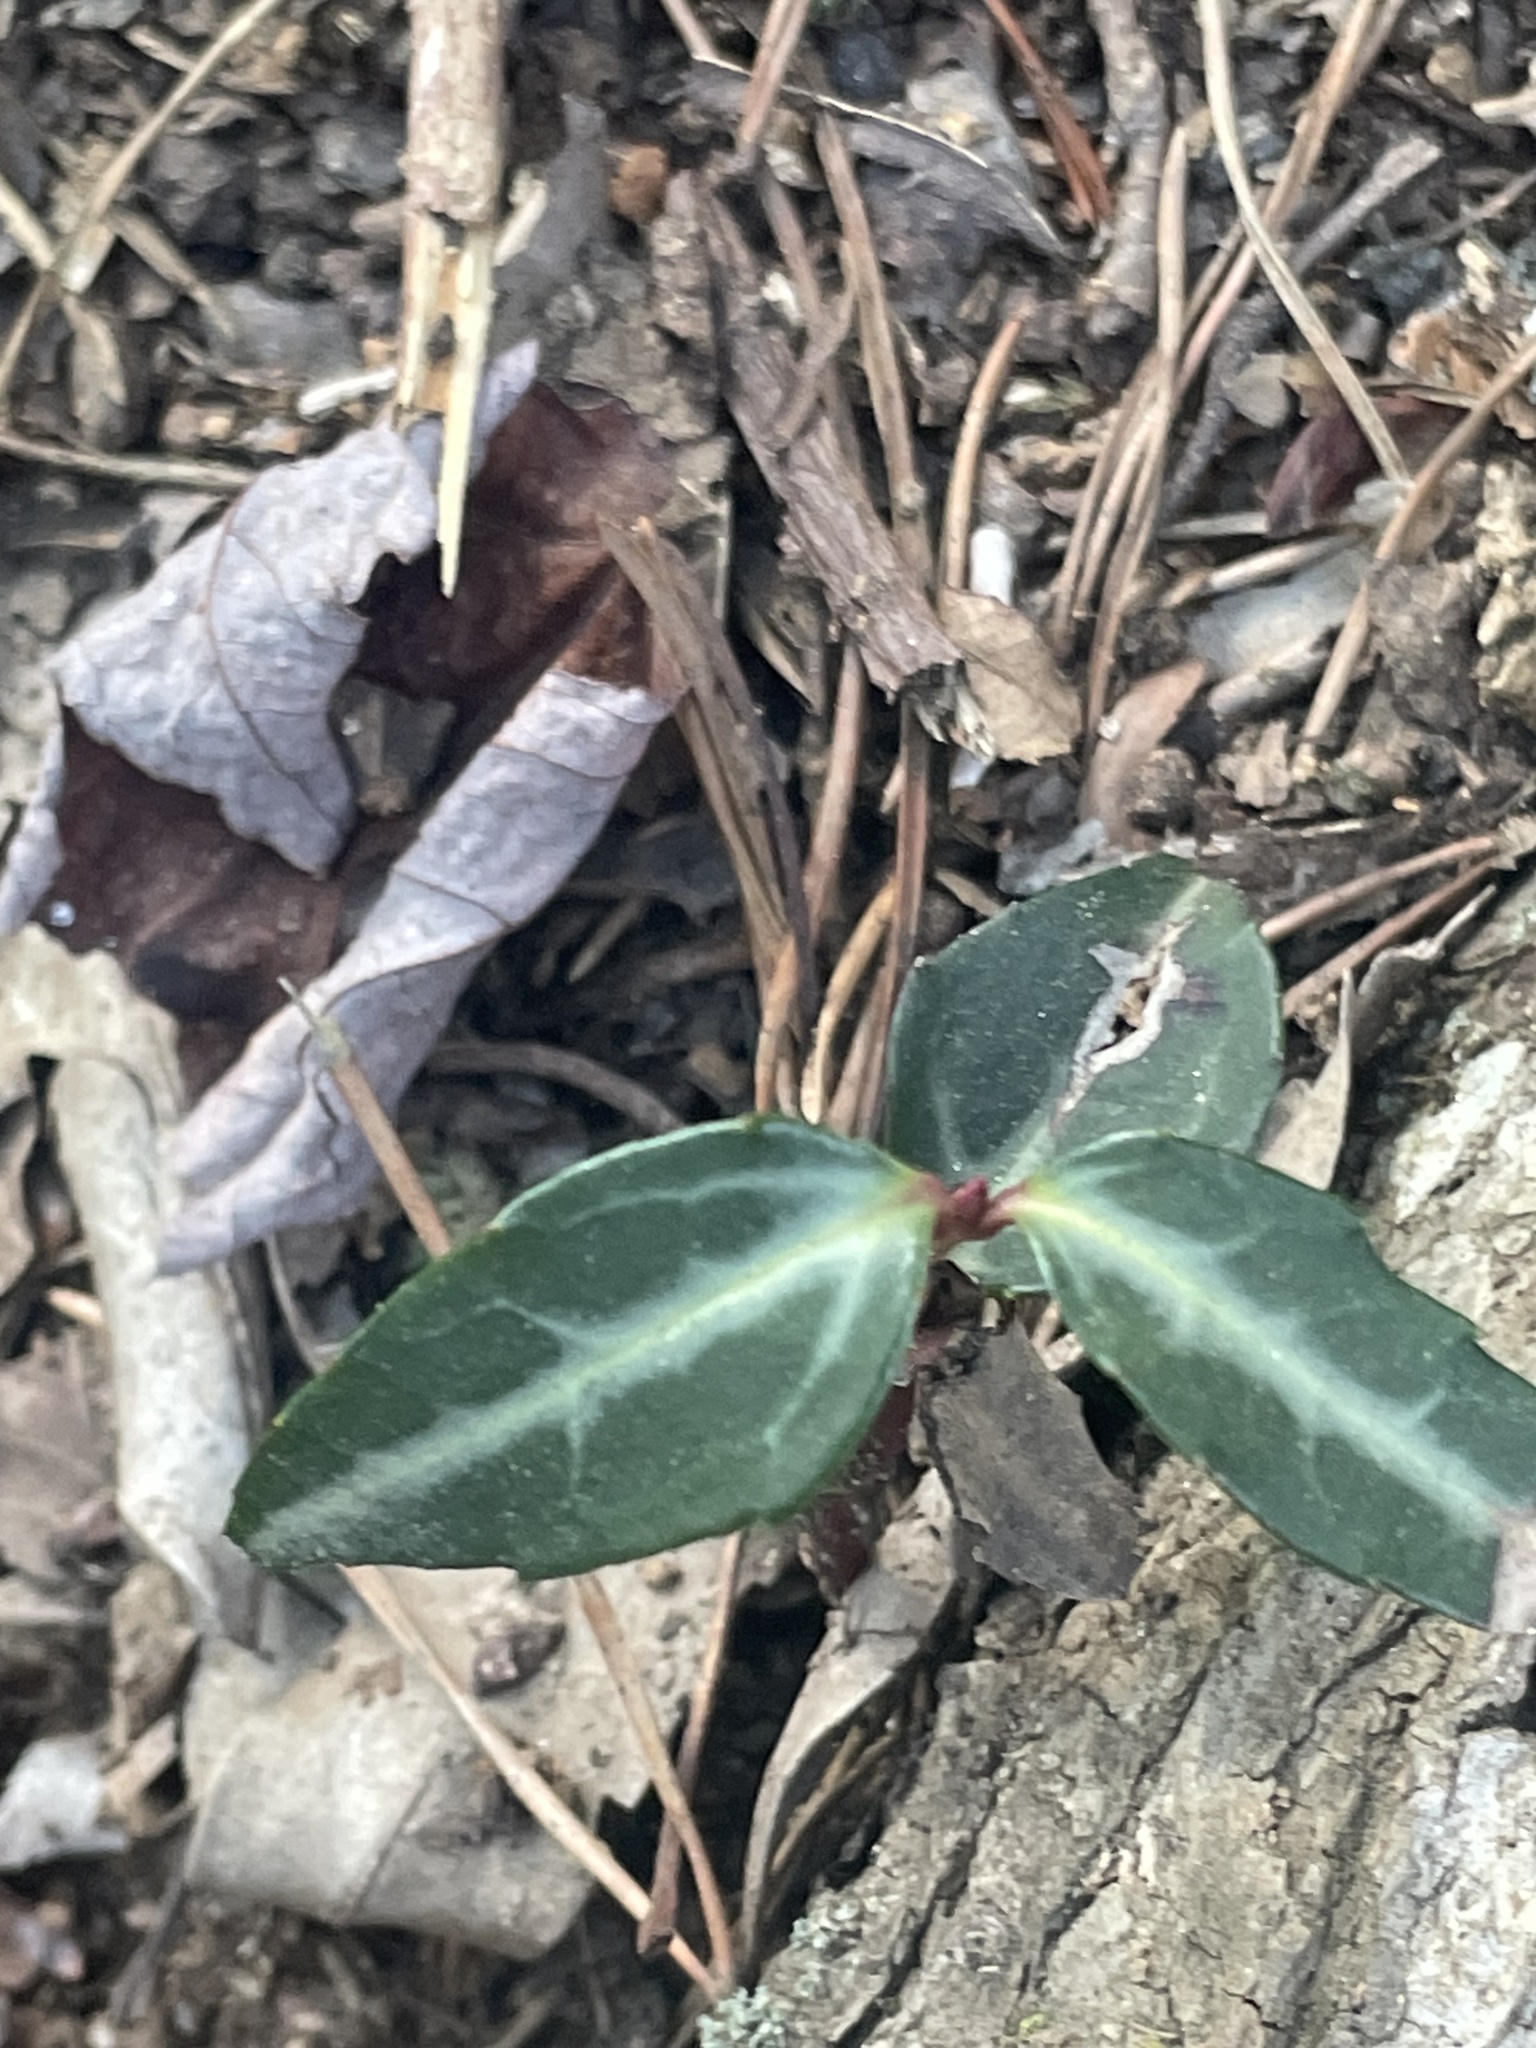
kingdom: Plantae
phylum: Tracheophyta
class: Magnoliopsida
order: Ericales
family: Ericaceae
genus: Chimaphila
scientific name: Chimaphila maculata
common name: Spotted pipsissewa
